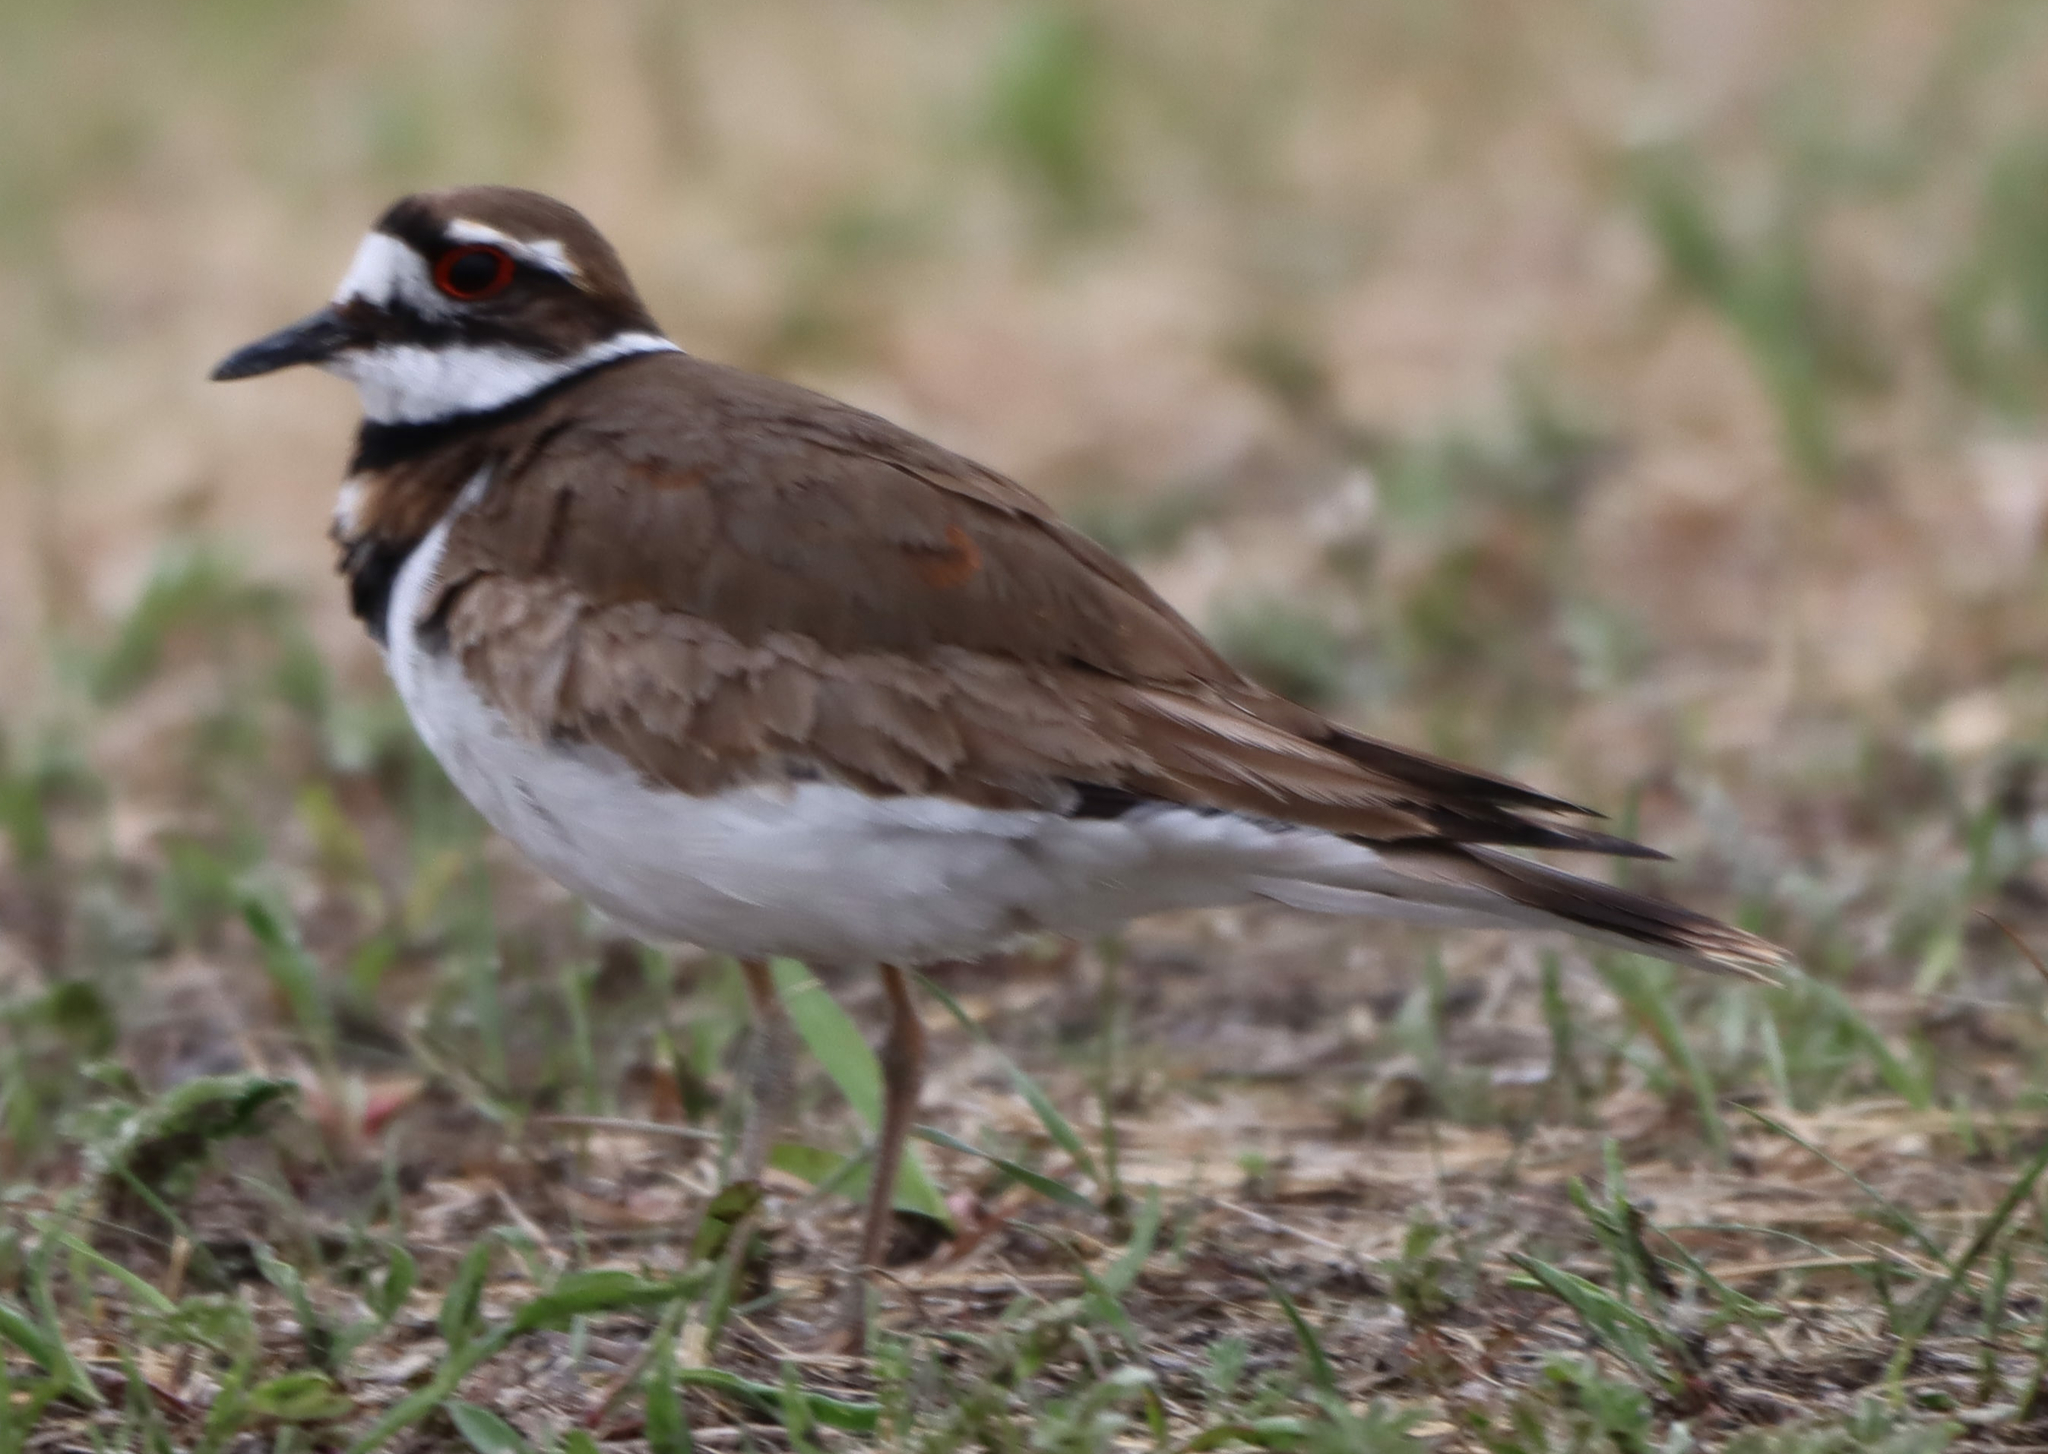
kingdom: Animalia
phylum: Chordata
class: Aves
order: Charadriiformes
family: Charadriidae
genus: Charadrius
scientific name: Charadrius vociferus
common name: Killdeer
